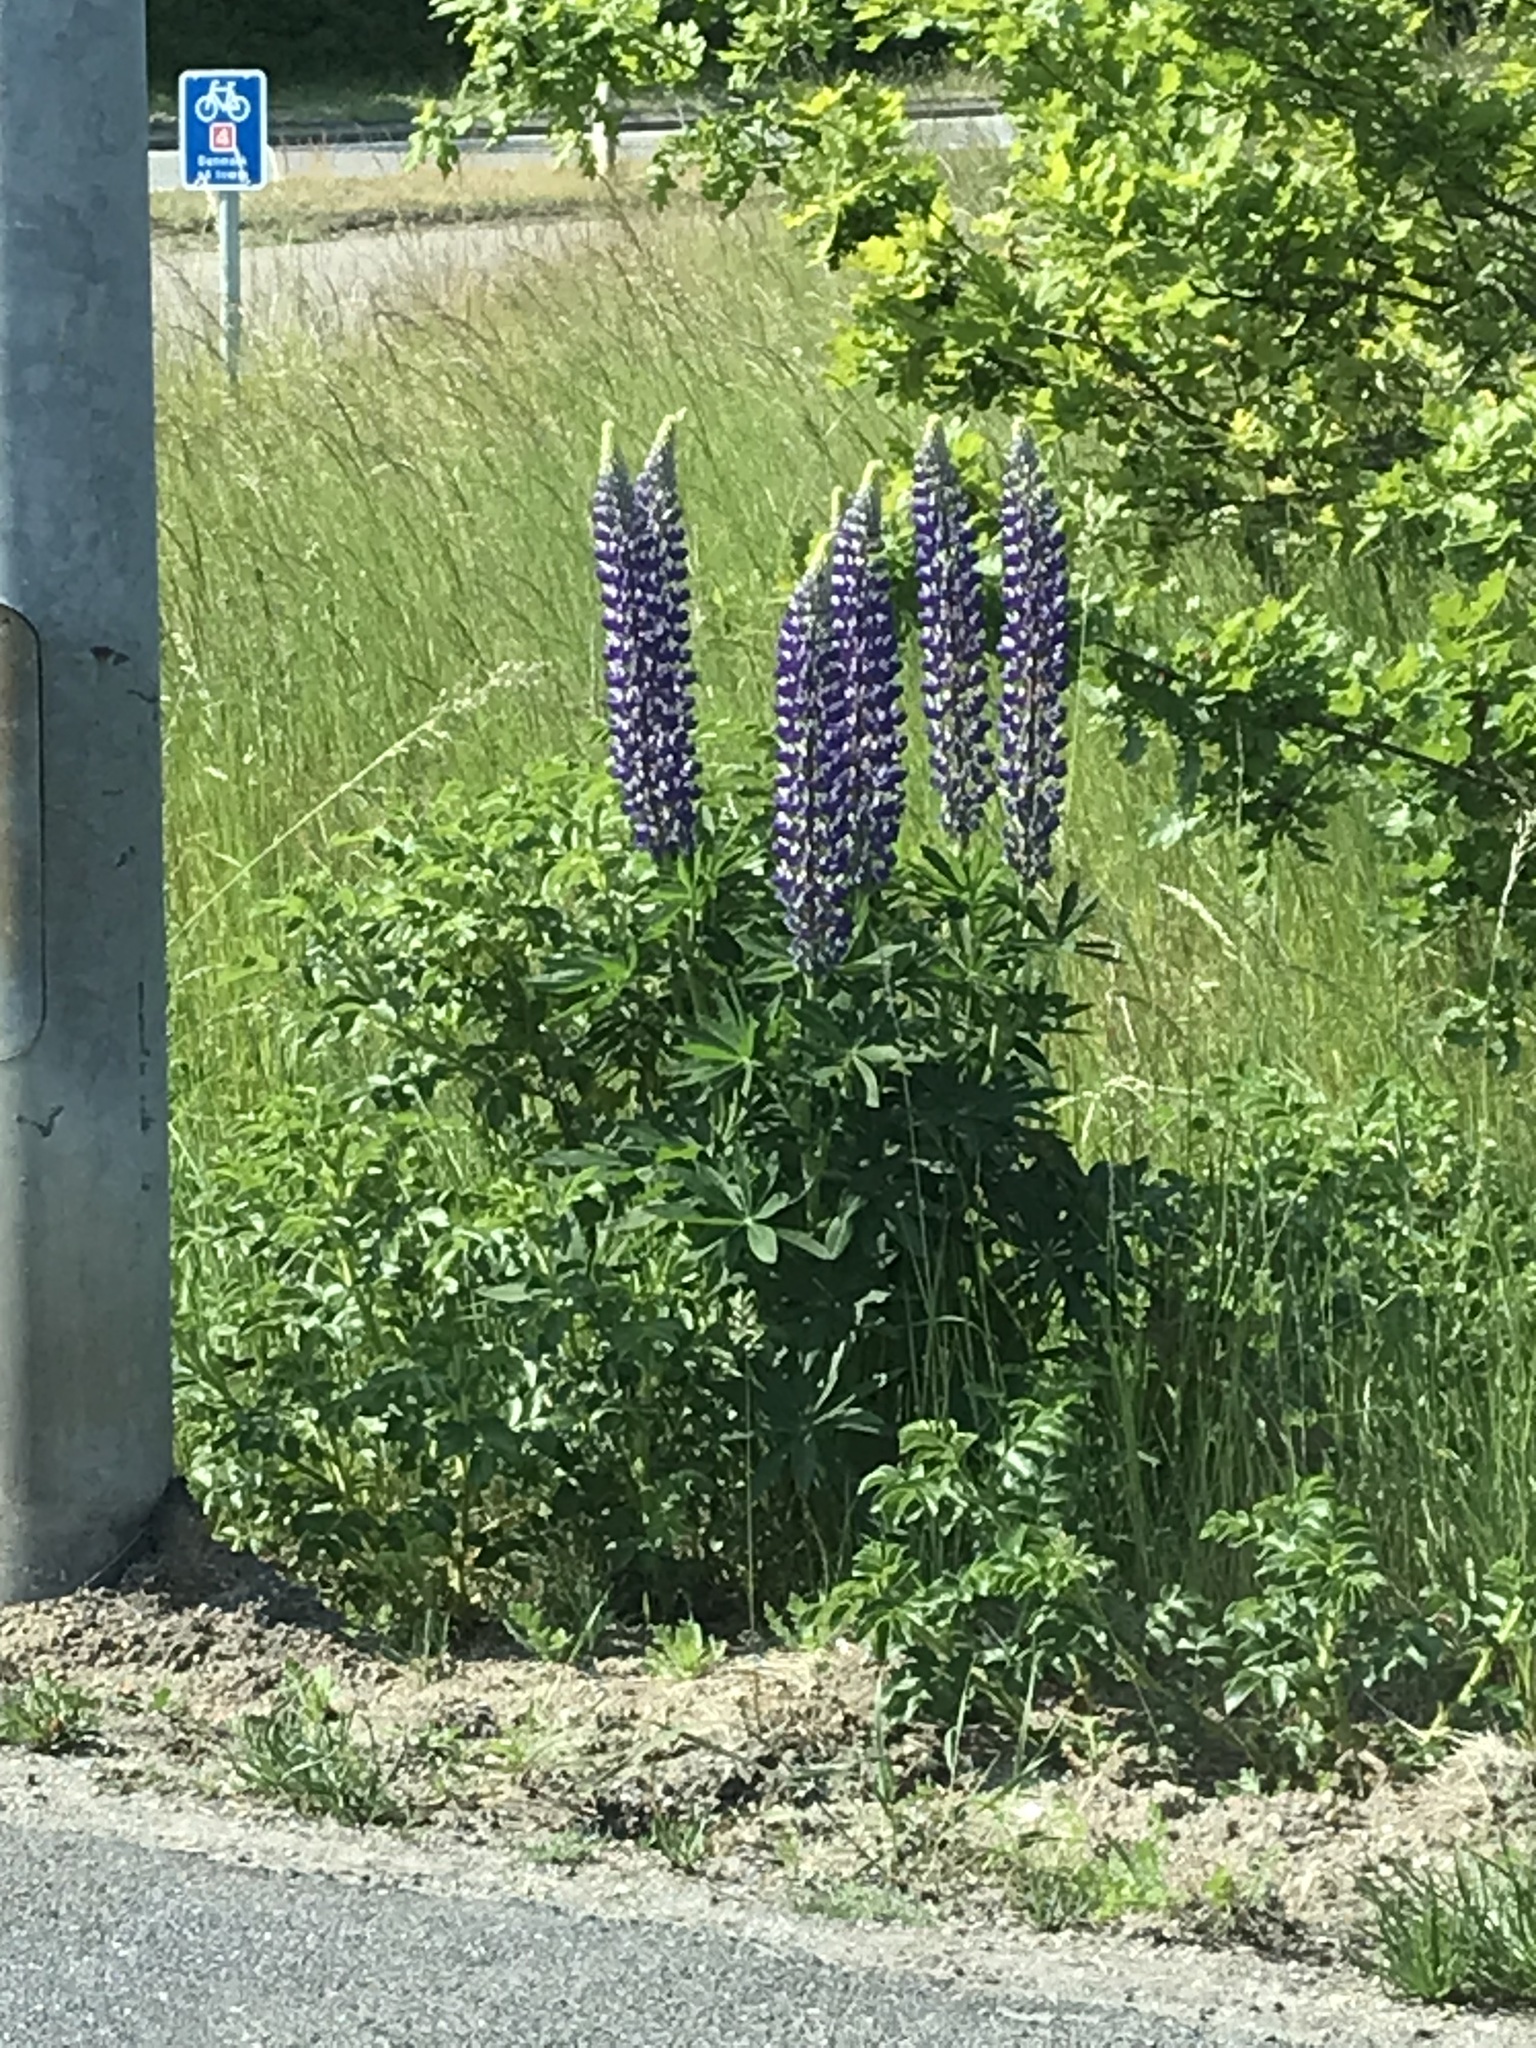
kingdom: Plantae
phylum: Tracheophyta
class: Magnoliopsida
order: Fabales
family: Fabaceae
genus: Lupinus
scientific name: Lupinus polyphyllus
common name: Garden lupin
